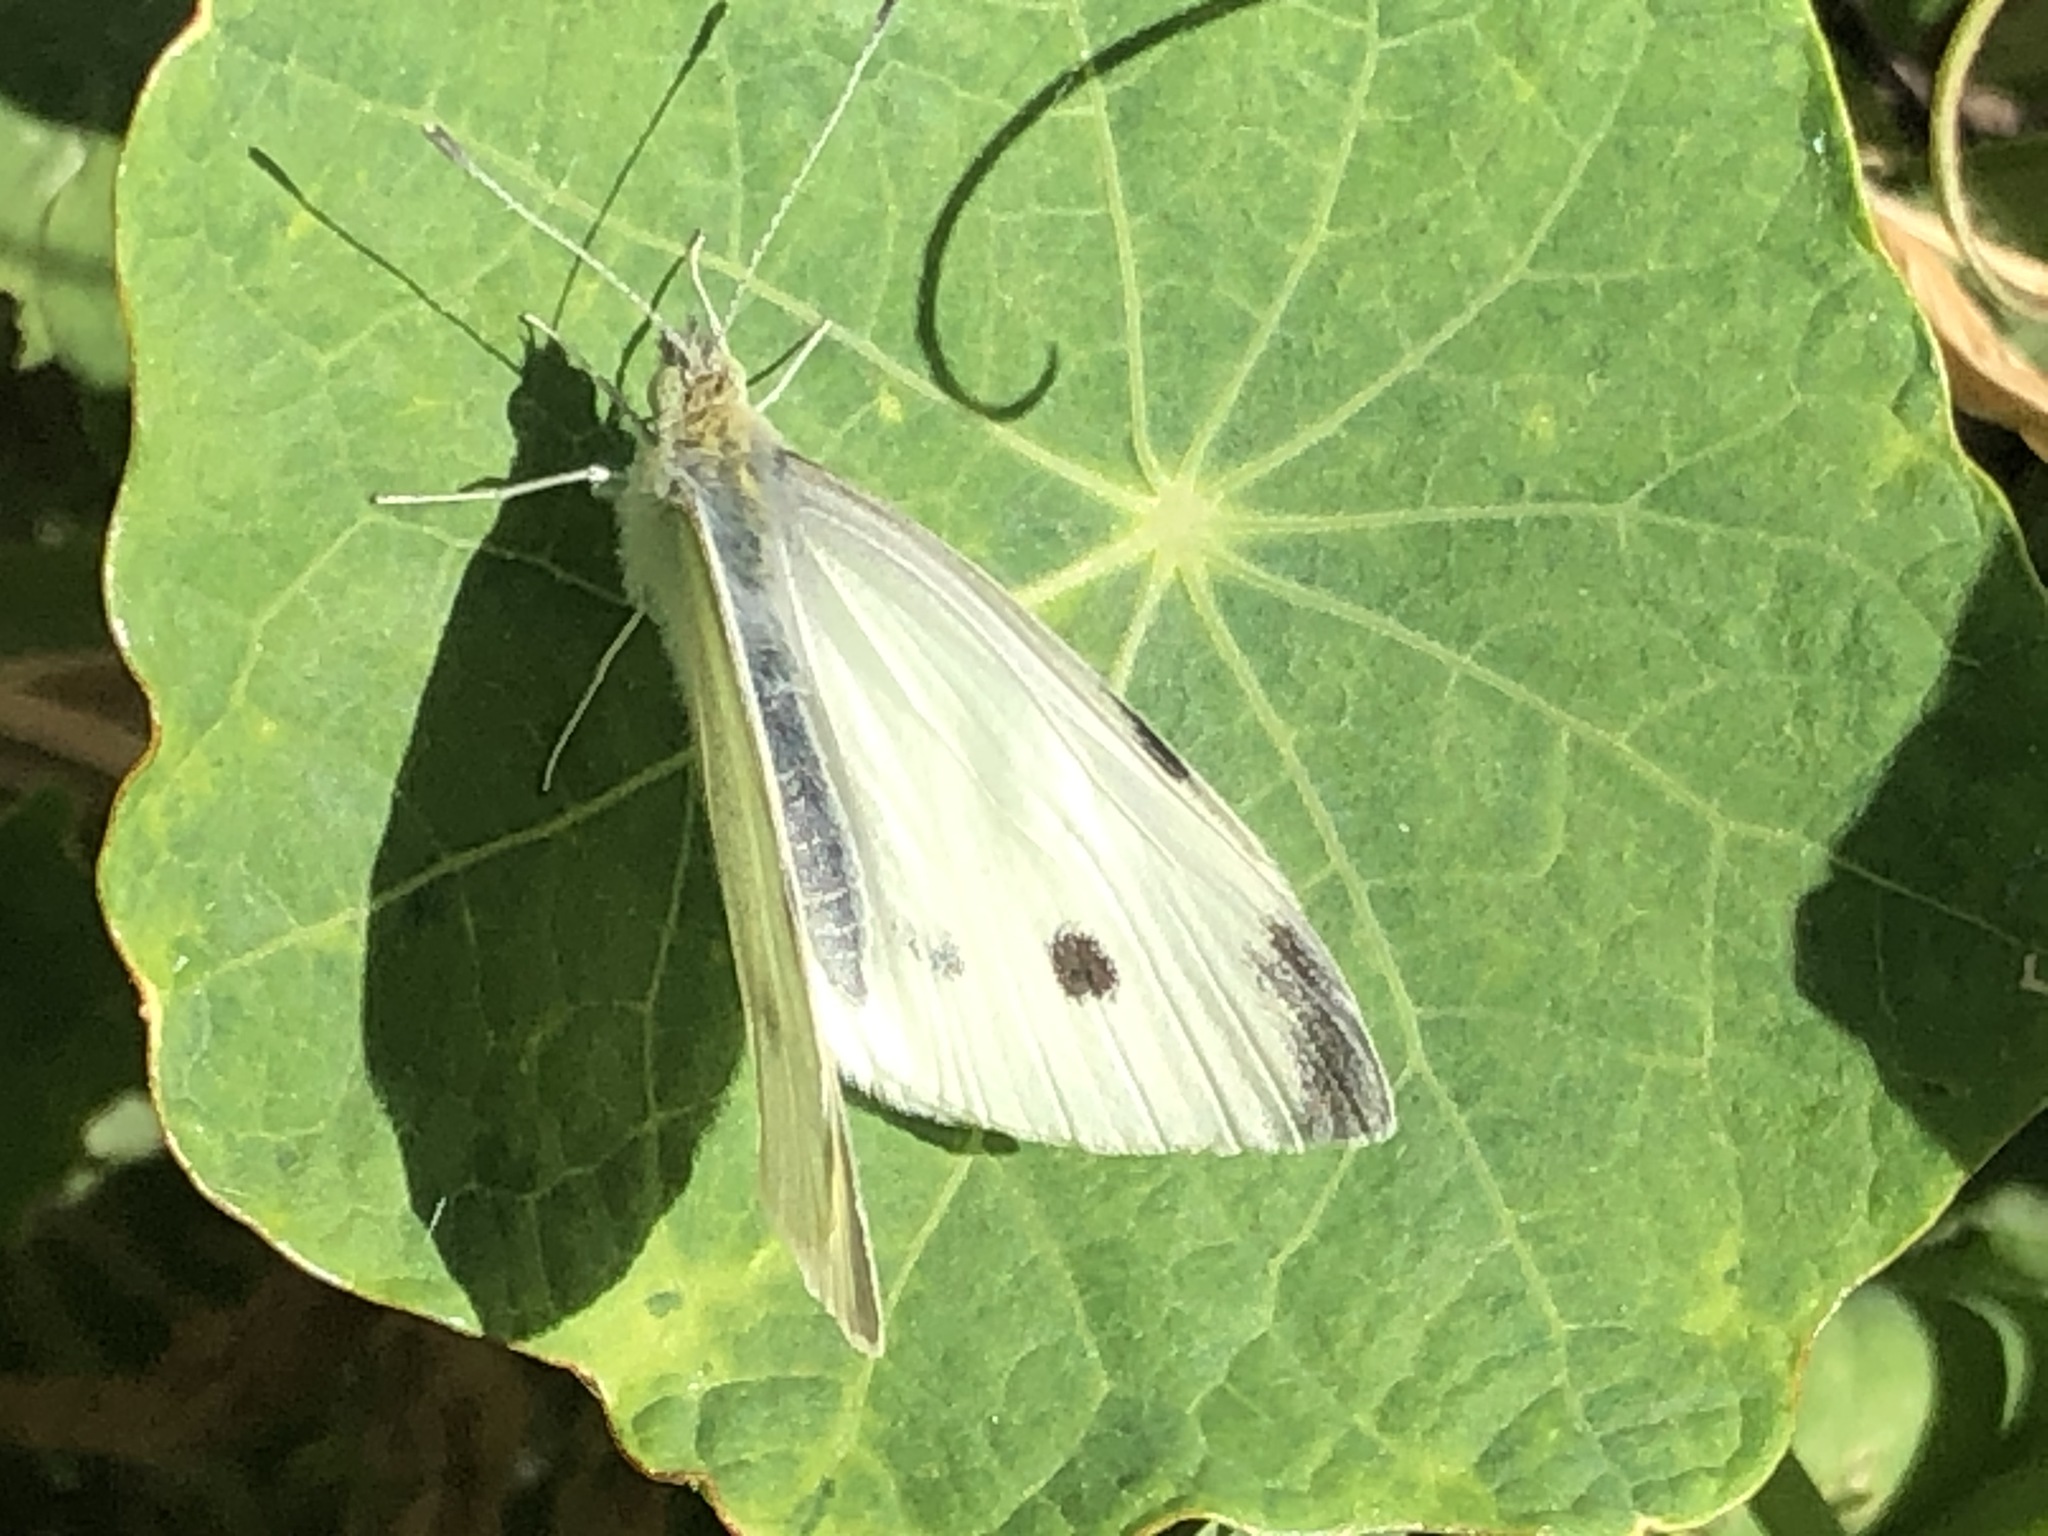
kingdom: Animalia
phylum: Arthropoda
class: Insecta
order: Lepidoptera
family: Pieridae
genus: Pieris
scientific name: Pieris rapae
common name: Small white
